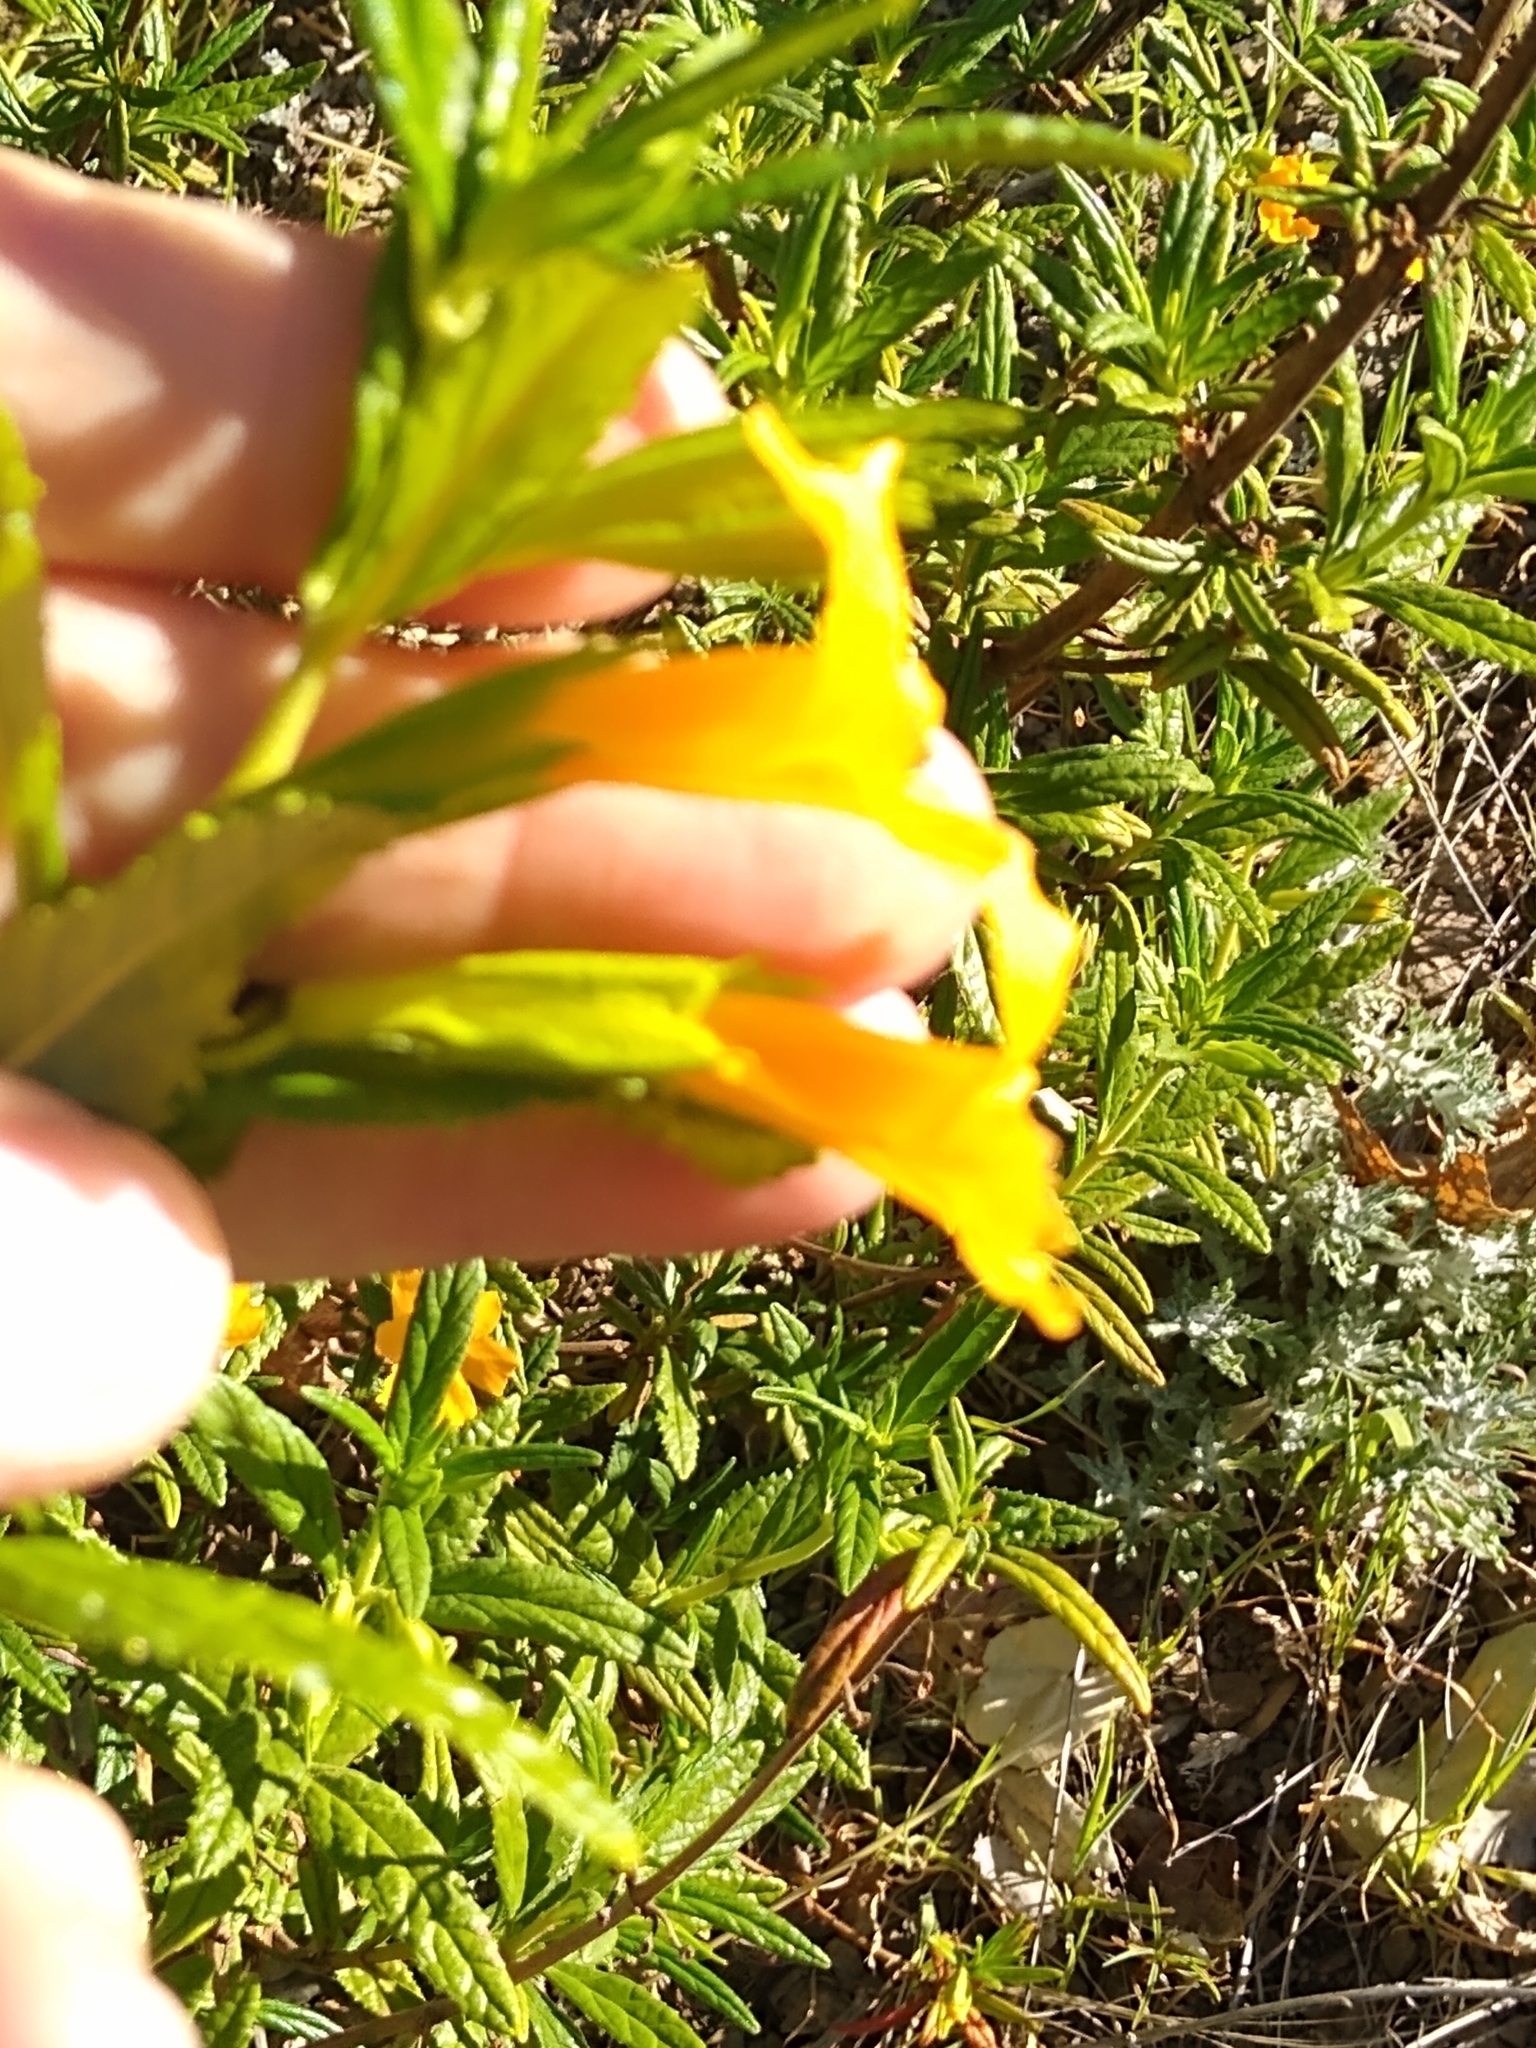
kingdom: Plantae
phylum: Tracheophyta
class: Magnoliopsida
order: Lamiales
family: Phrymaceae
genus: Diplacus
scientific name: Diplacus aurantiacus
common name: Bush monkey-flower
